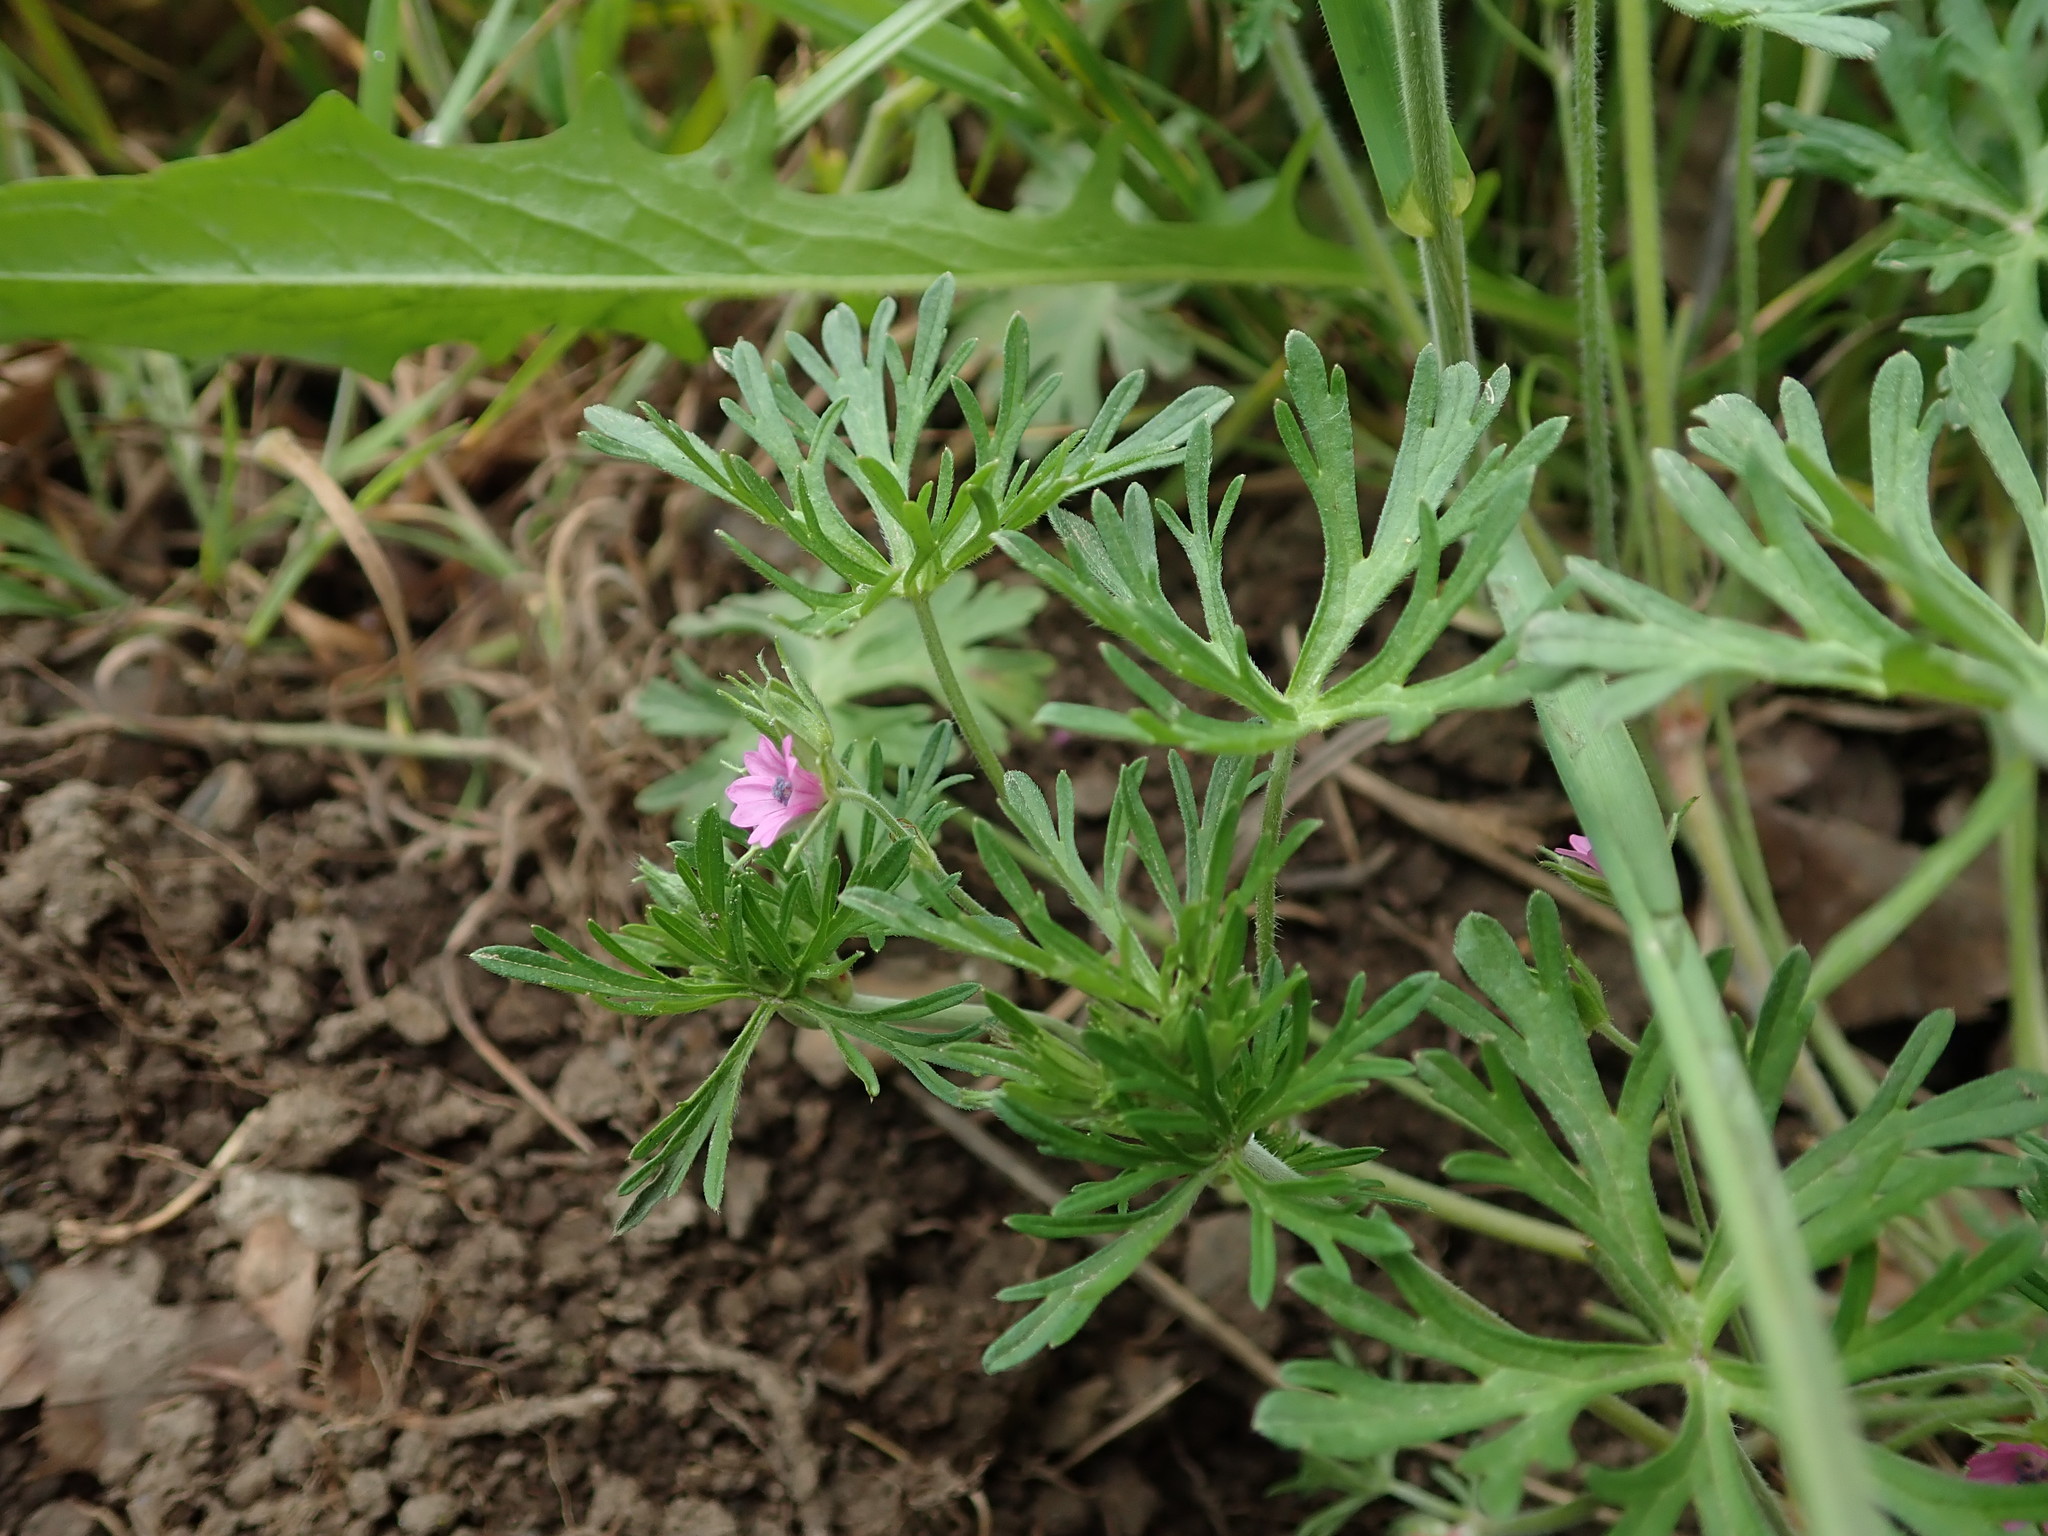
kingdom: Plantae
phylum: Tracheophyta
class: Magnoliopsida
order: Geraniales
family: Geraniaceae
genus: Geranium
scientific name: Geranium dissectum
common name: Cut-leaved crane's-bill
